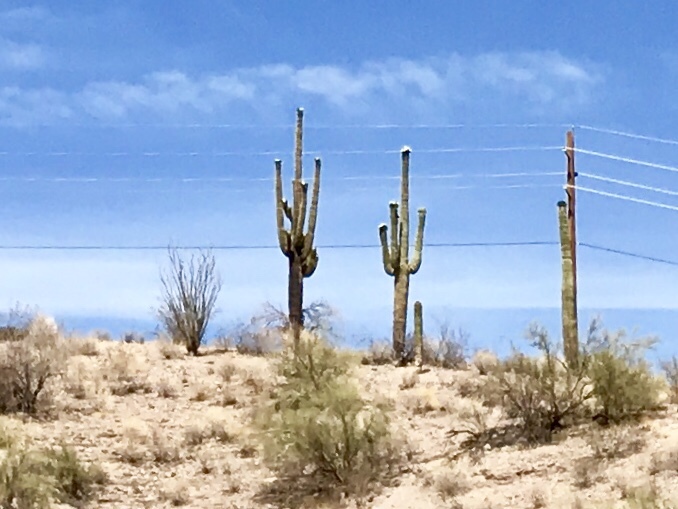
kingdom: Plantae
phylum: Tracheophyta
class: Magnoliopsida
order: Caryophyllales
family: Cactaceae
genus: Carnegiea
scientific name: Carnegiea gigantea
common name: Saguaro
